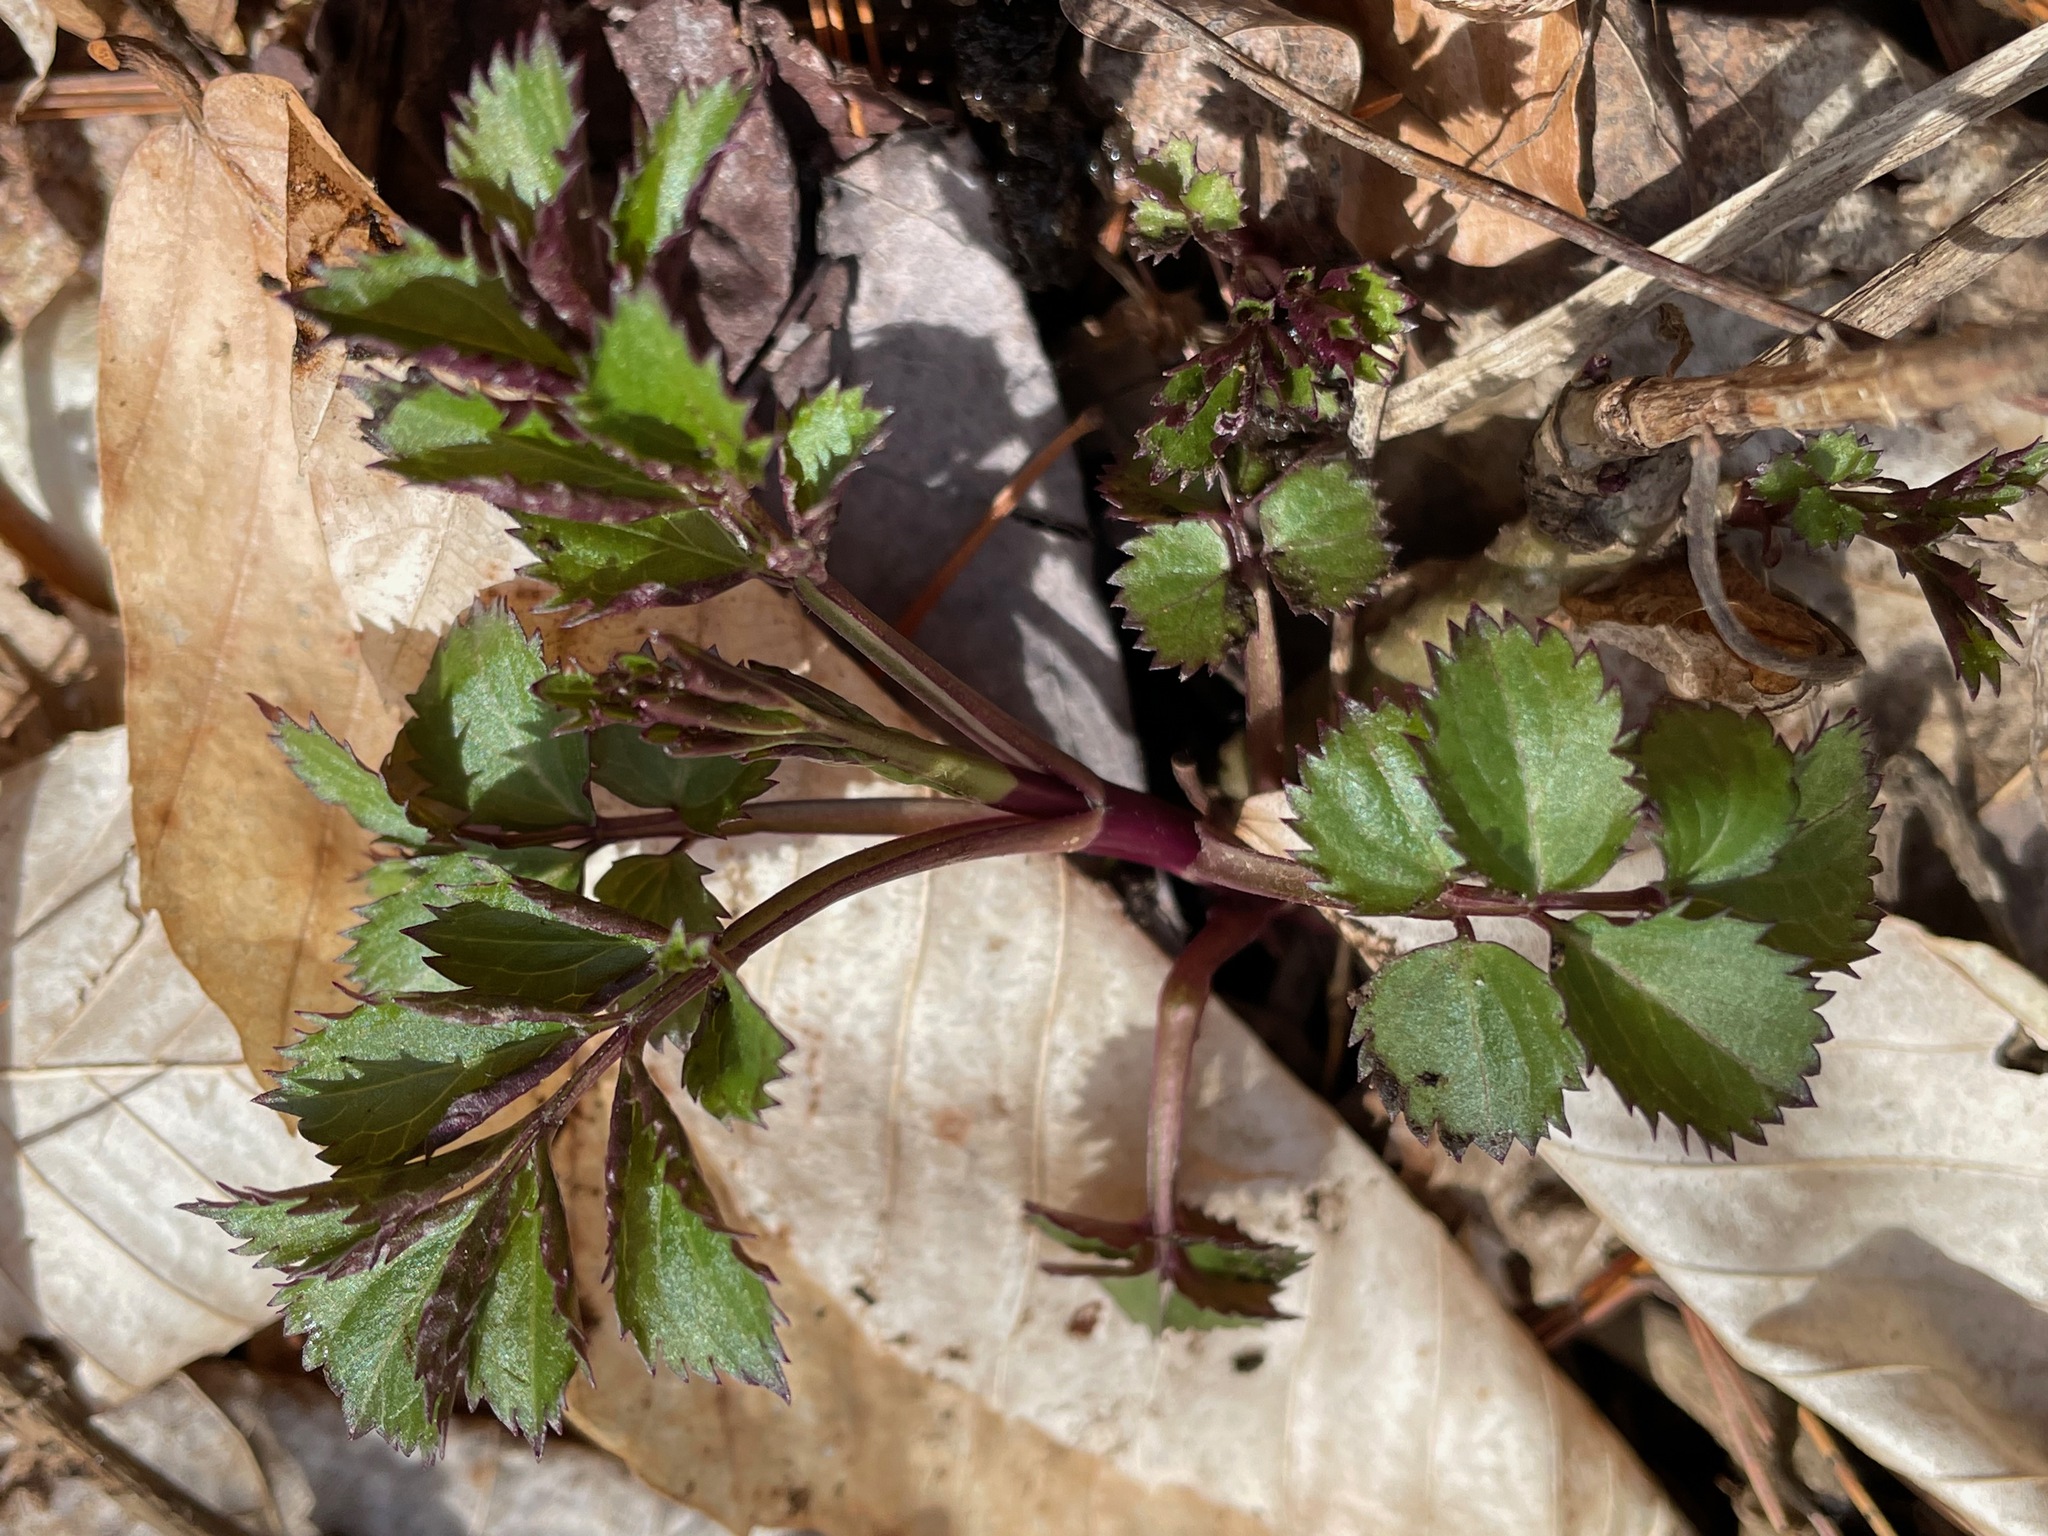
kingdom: Plantae
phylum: Tracheophyta
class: Magnoliopsida
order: Dipsacales
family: Viburnaceae
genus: Sambucus
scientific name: Sambucus canadensis
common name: American elder
